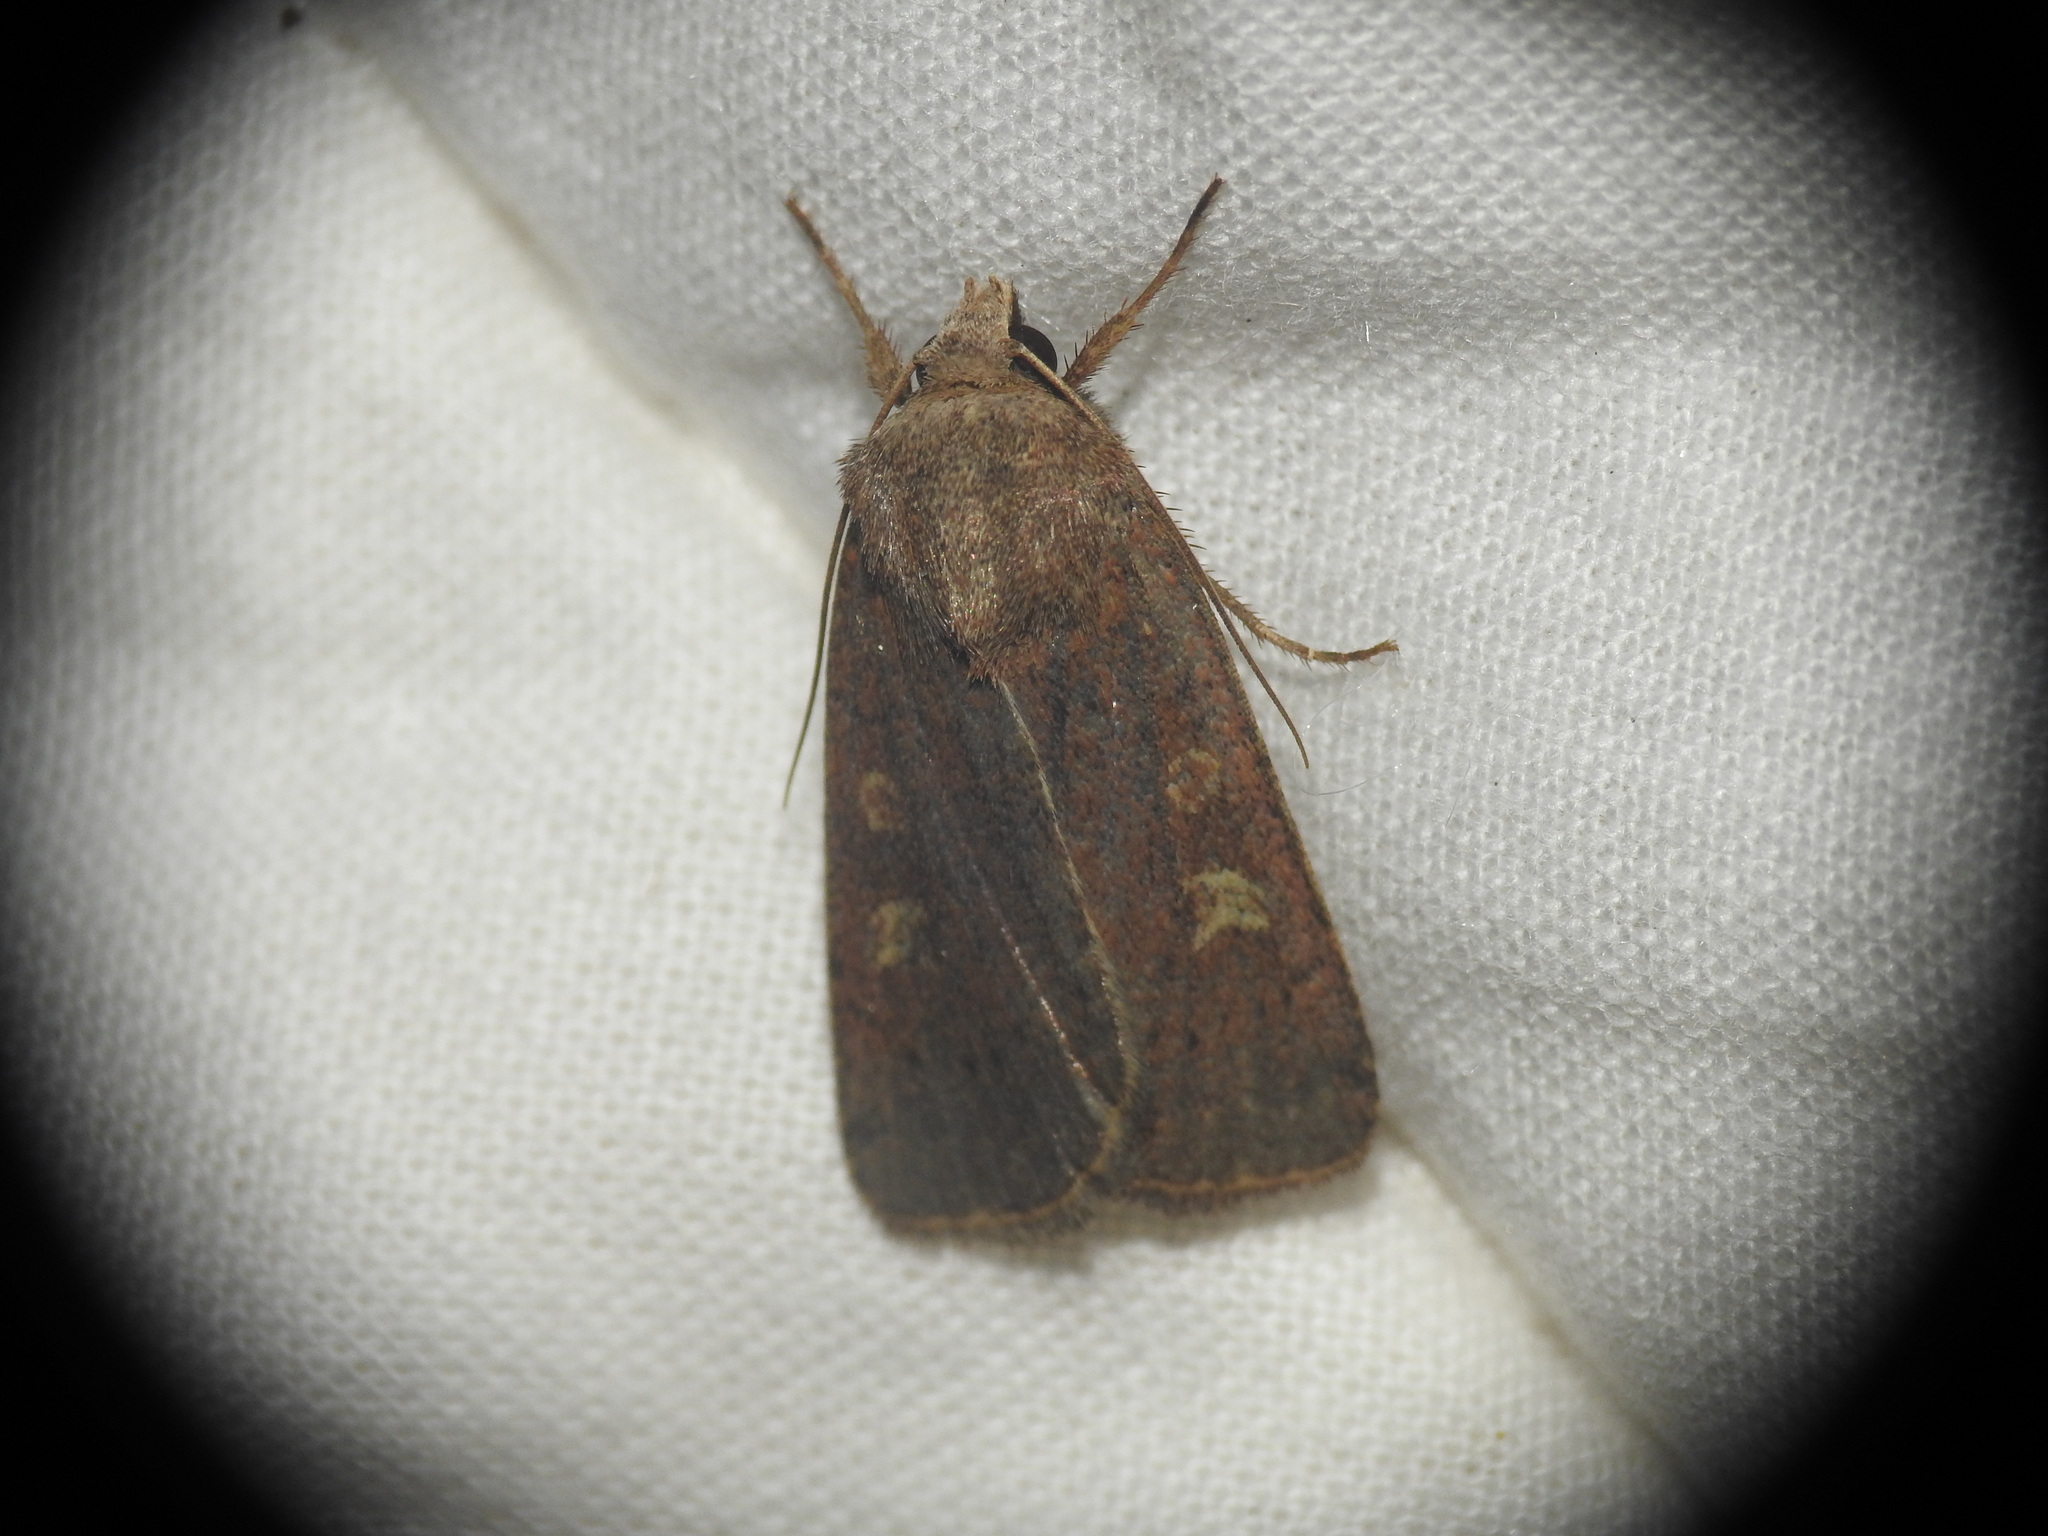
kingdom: Animalia
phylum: Arthropoda
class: Insecta
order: Lepidoptera
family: Noctuidae
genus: Xestia
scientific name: Xestia xanthographa
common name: Square-spot rustic
